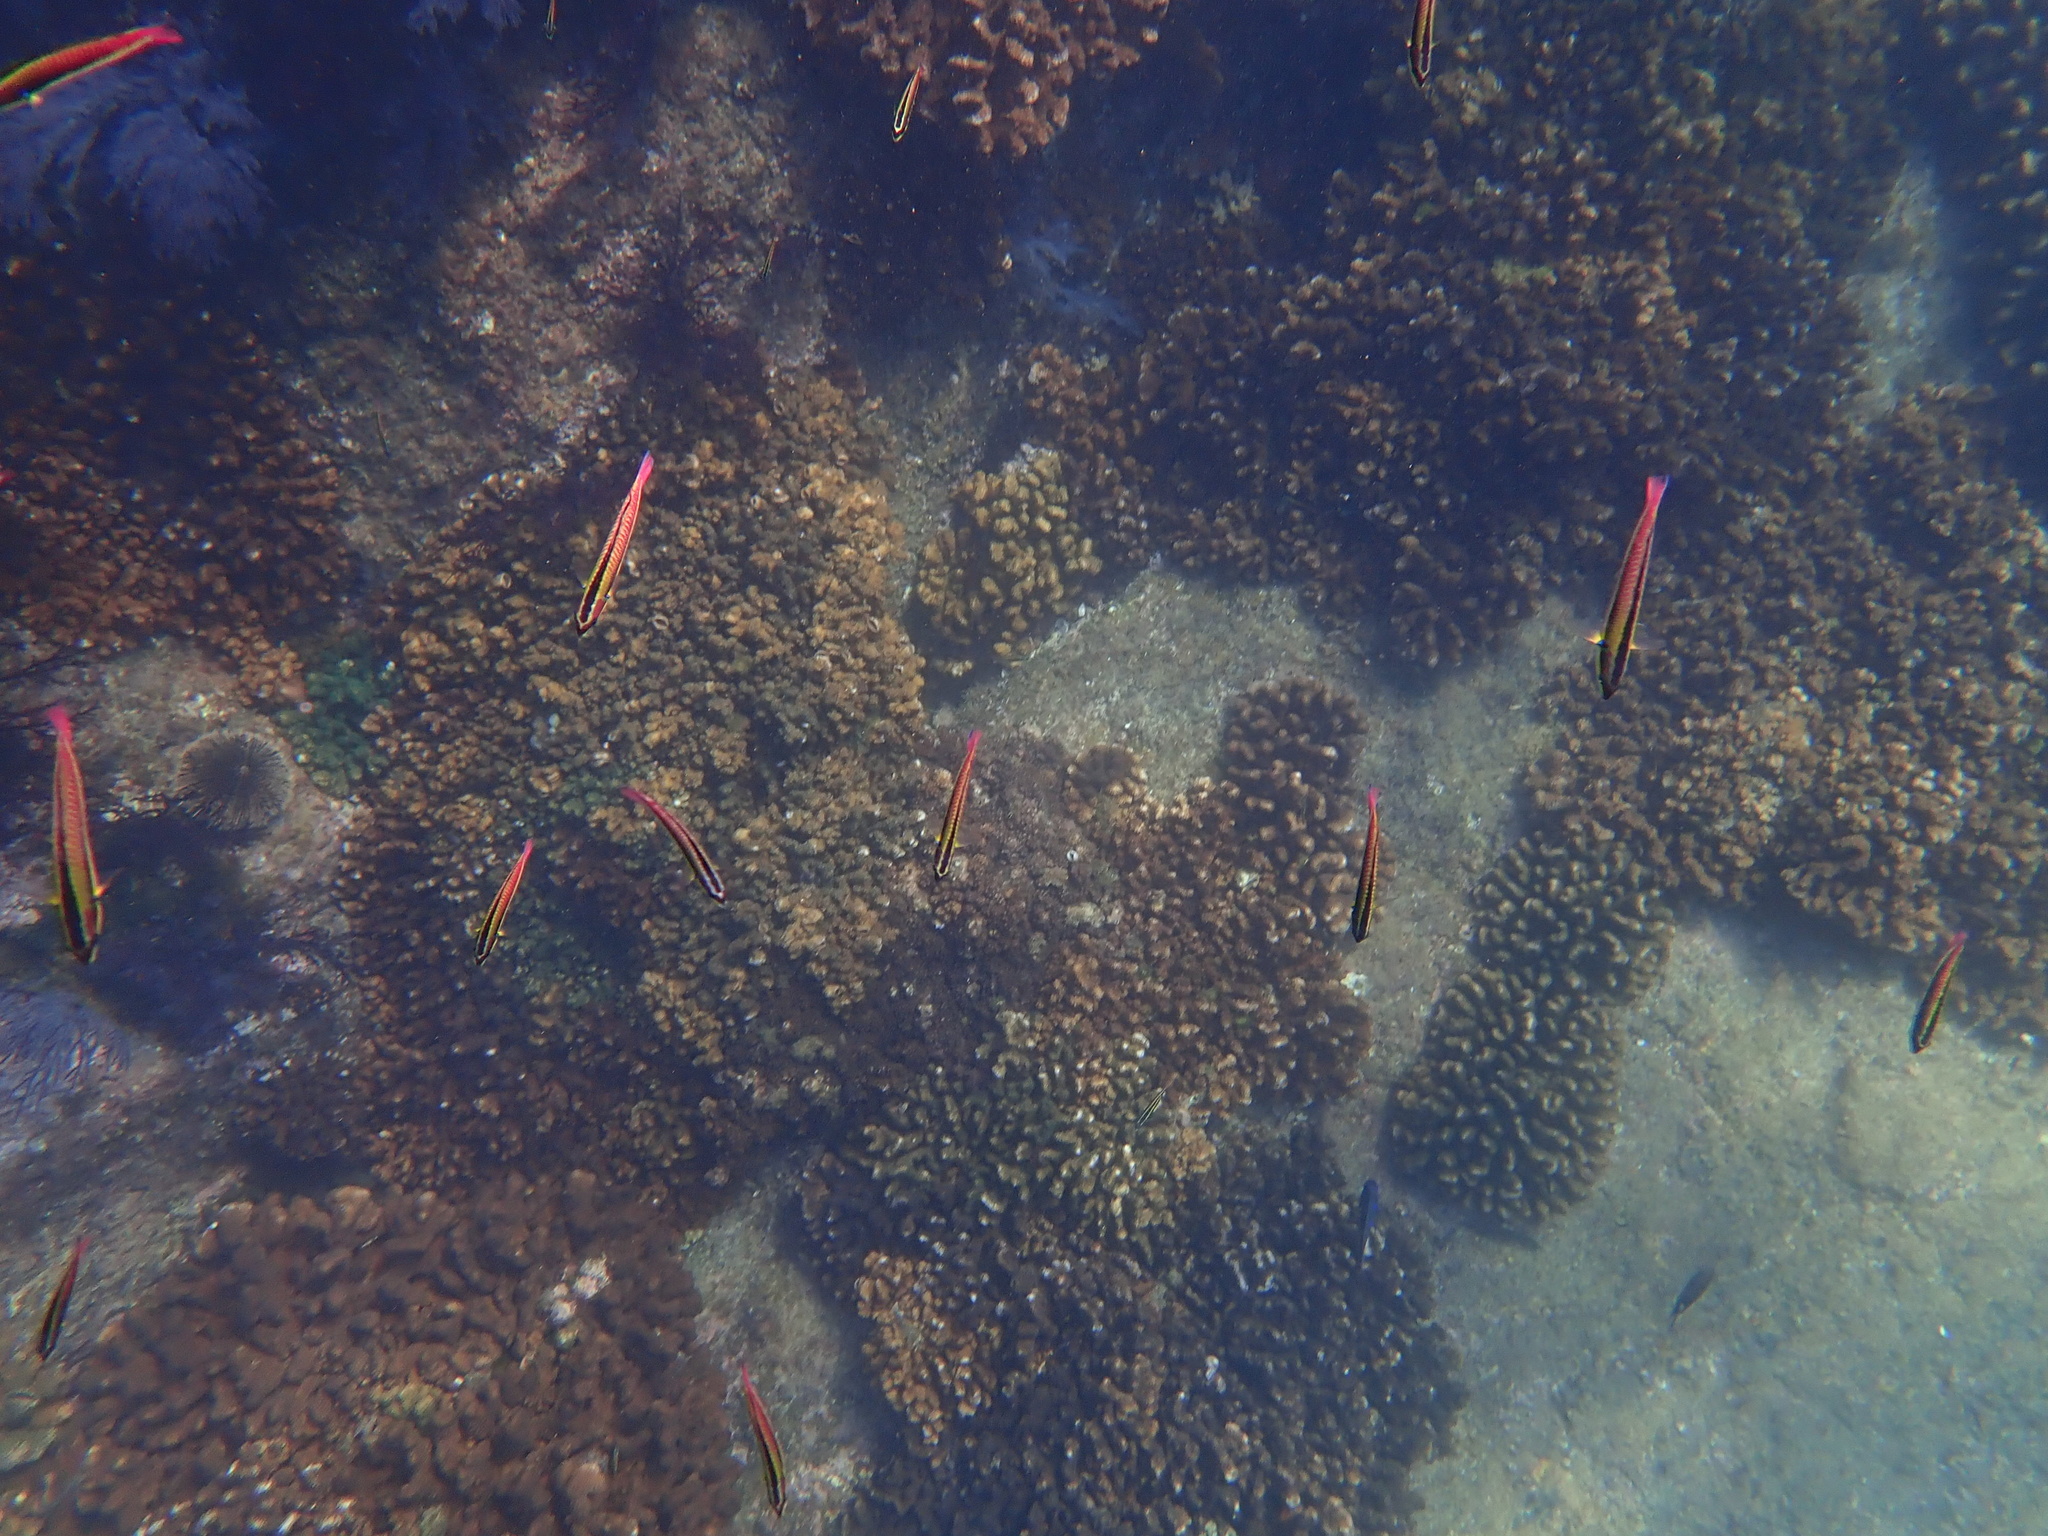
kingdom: Animalia
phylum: Chordata
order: Perciformes
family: Labridae
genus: Thalassoma
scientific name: Thalassoma lucasanum
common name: Cortez rainbow wrasse
